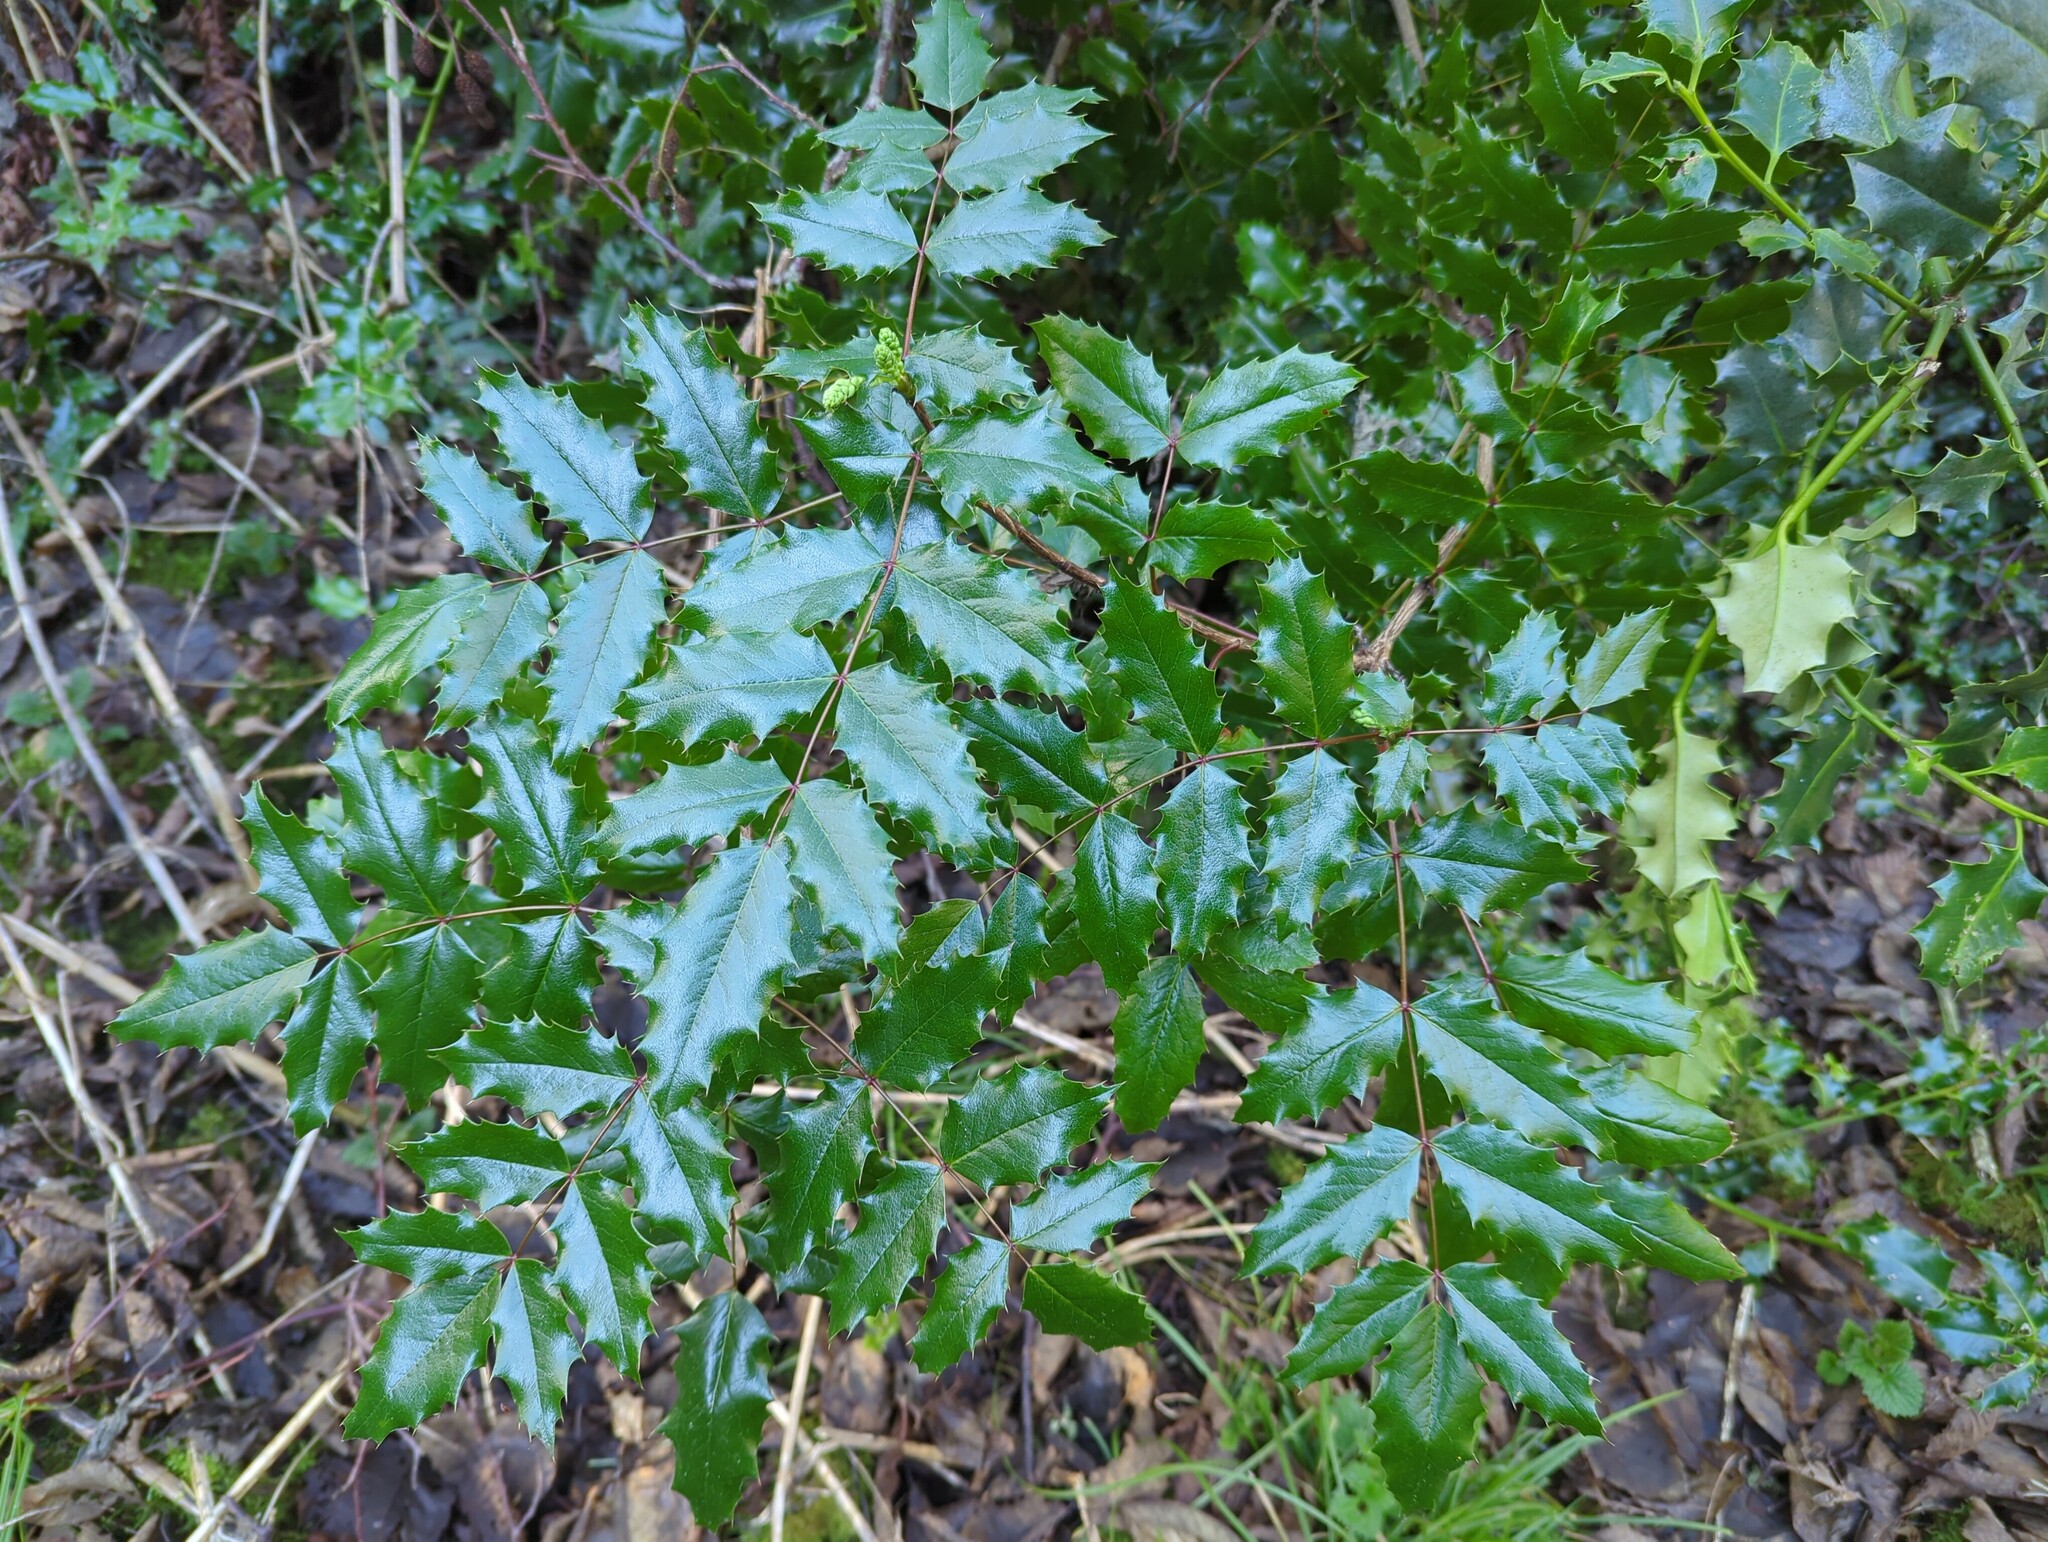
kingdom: Plantae
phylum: Tracheophyta
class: Magnoliopsida
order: Ranunculales
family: Berberidaceae
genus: Mahonia
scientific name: Mahonia aquifolium
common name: Oregon-grape
